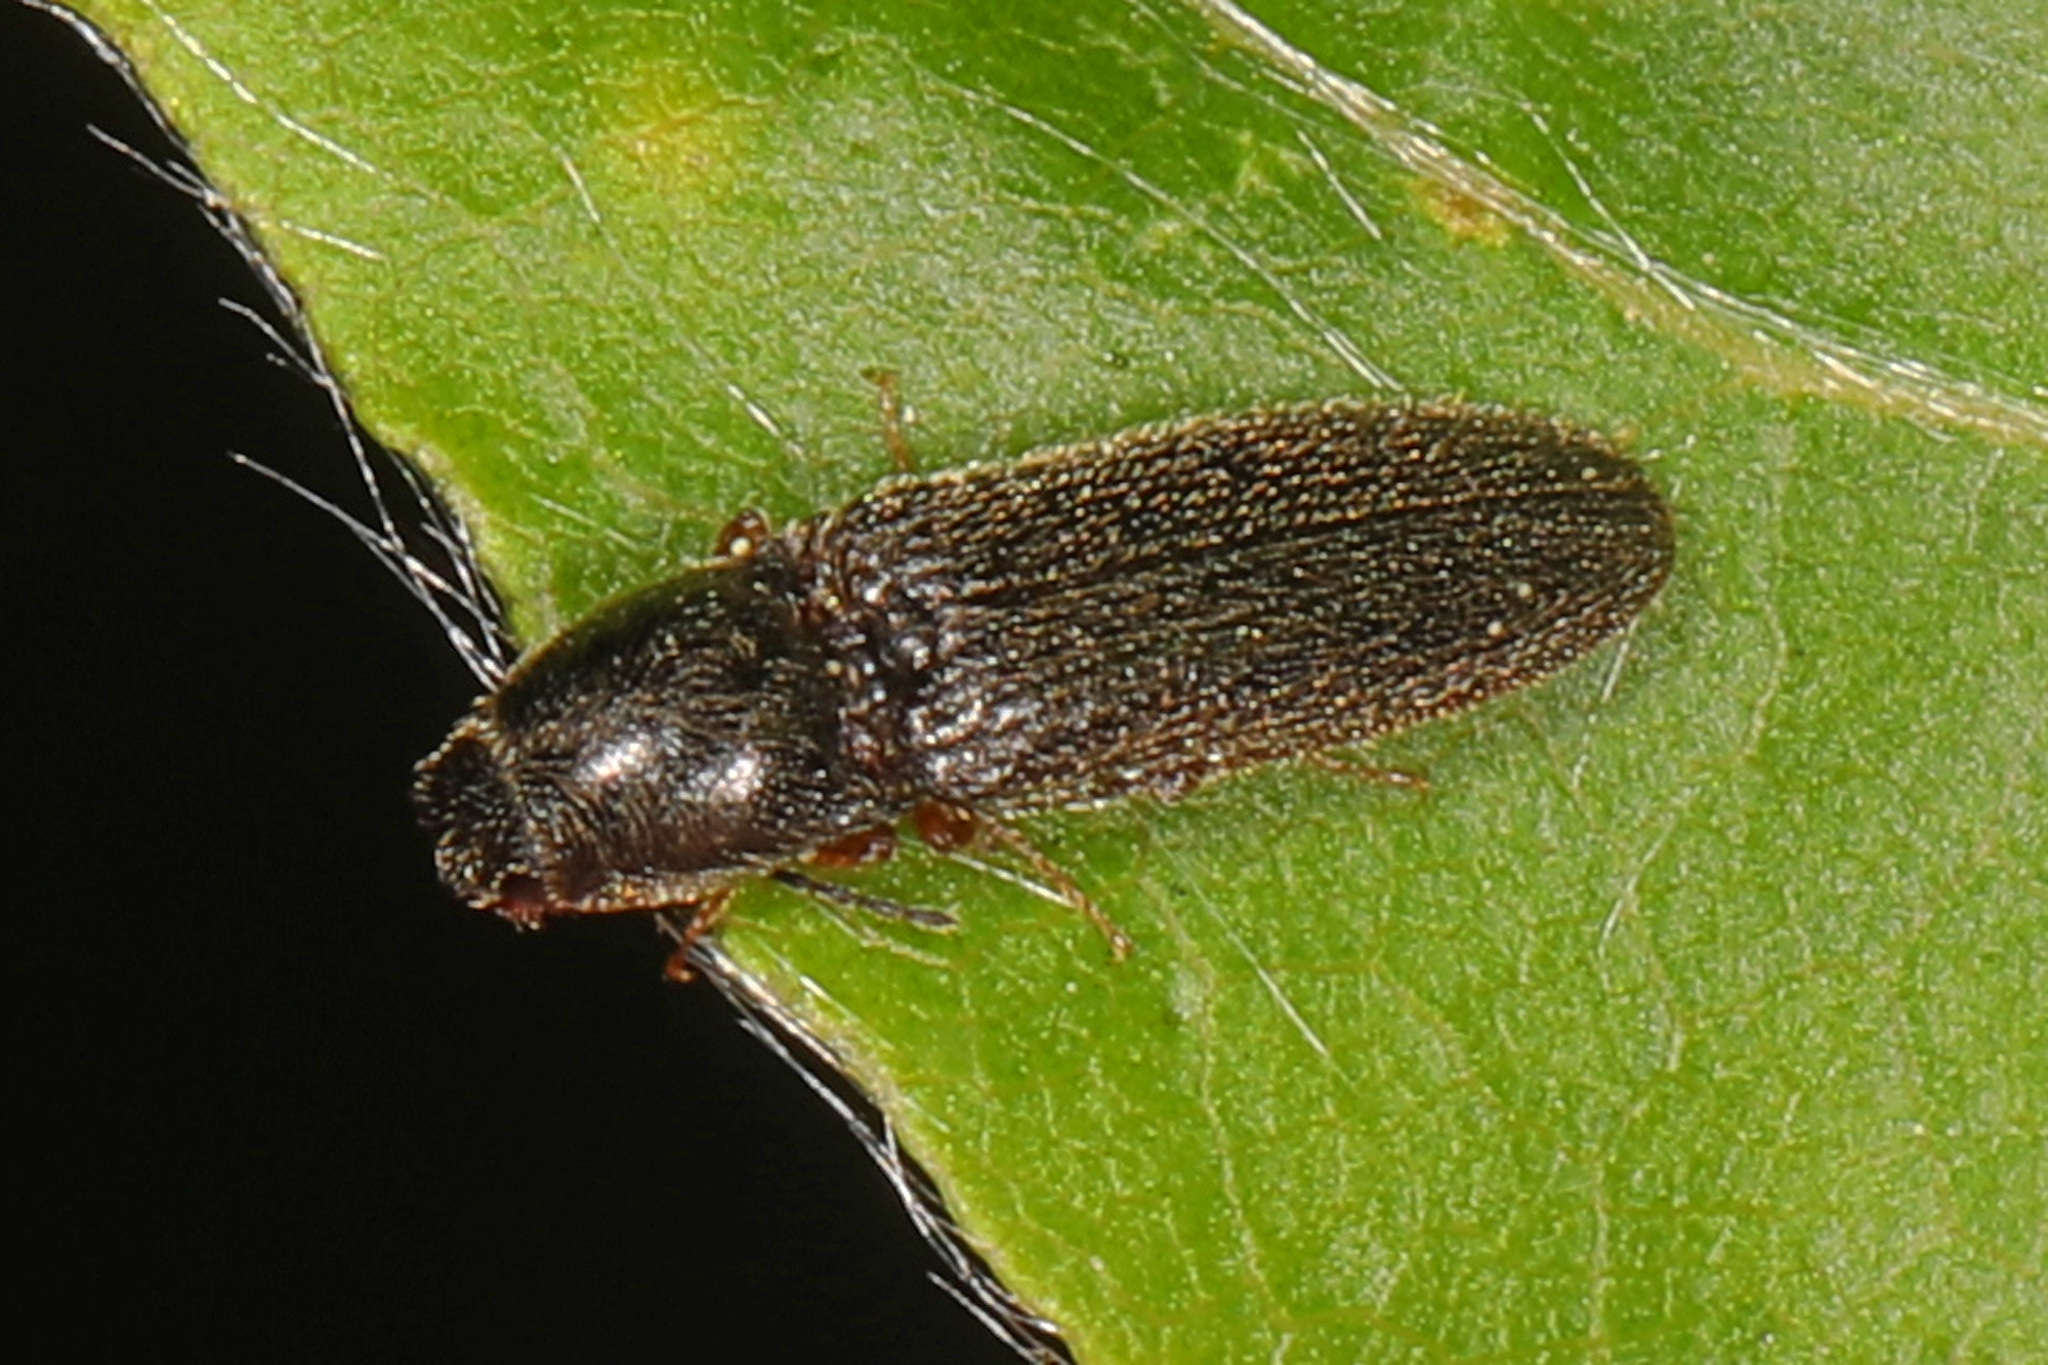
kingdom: Animalia
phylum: Arthropoda
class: Insecta
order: Coleoptera
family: Elateridae
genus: Limonius
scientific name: Limonius quercinus
